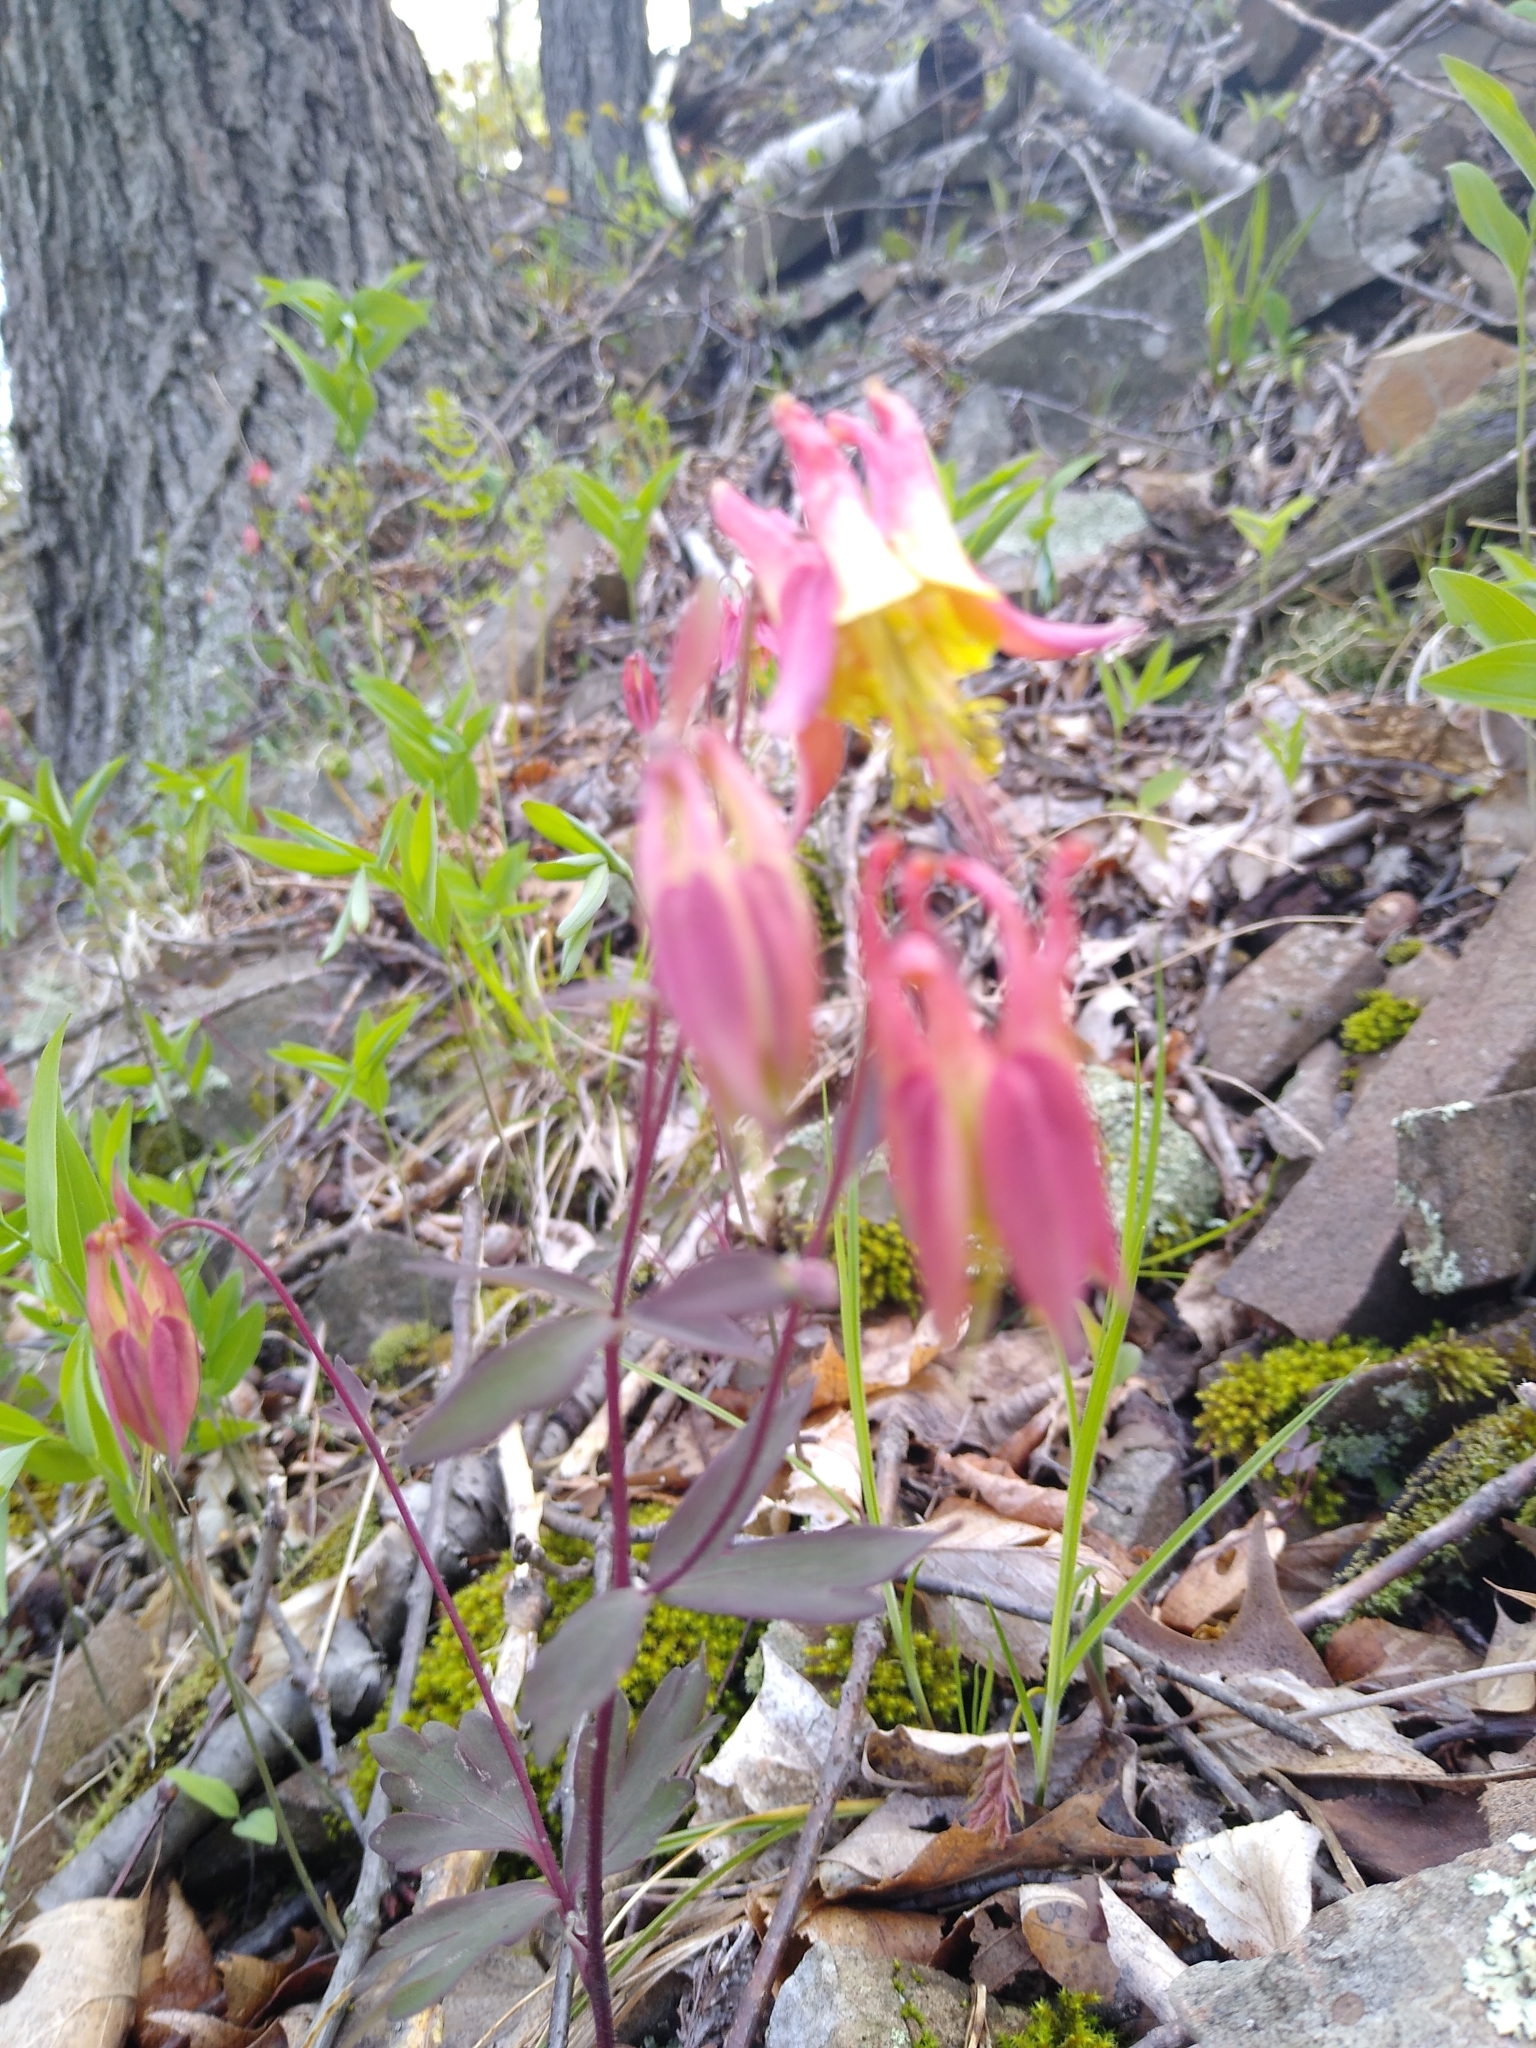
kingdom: Plantae
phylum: Tracheophyta
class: Magnoliopsida
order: Ranunculales
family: Ranunculaceae
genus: Aquilegia
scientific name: Aquilegia canadensis
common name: American columbine
